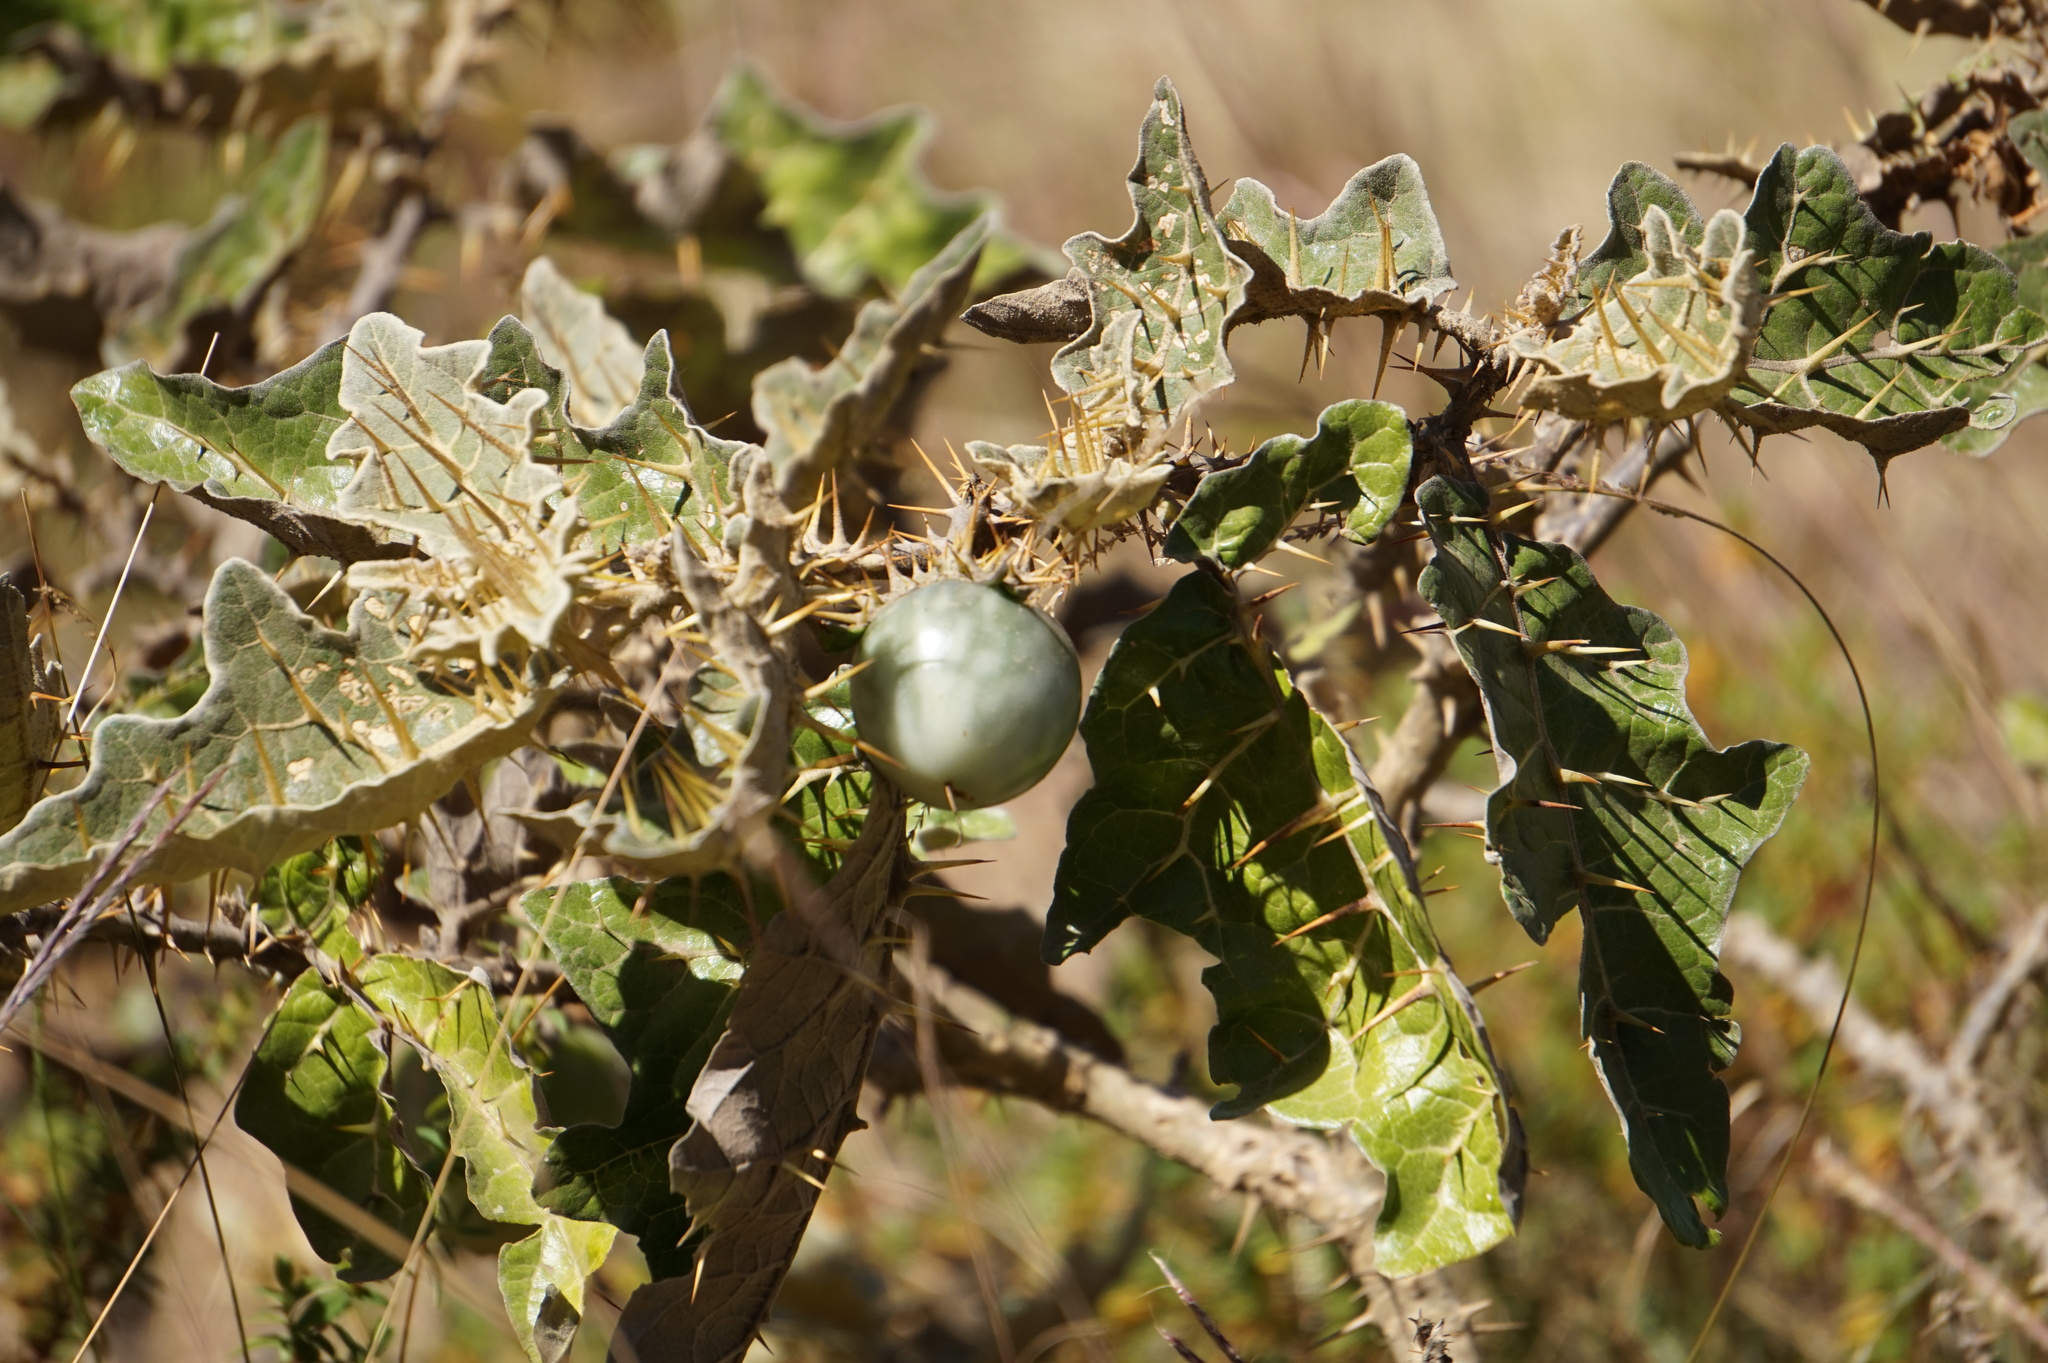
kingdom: Plantae
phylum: Tracheophyta
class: Magnoliopsida
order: Solanales
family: Solanaceae
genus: Solanum
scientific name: Solanum marginatum
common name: Purple african nightshade
